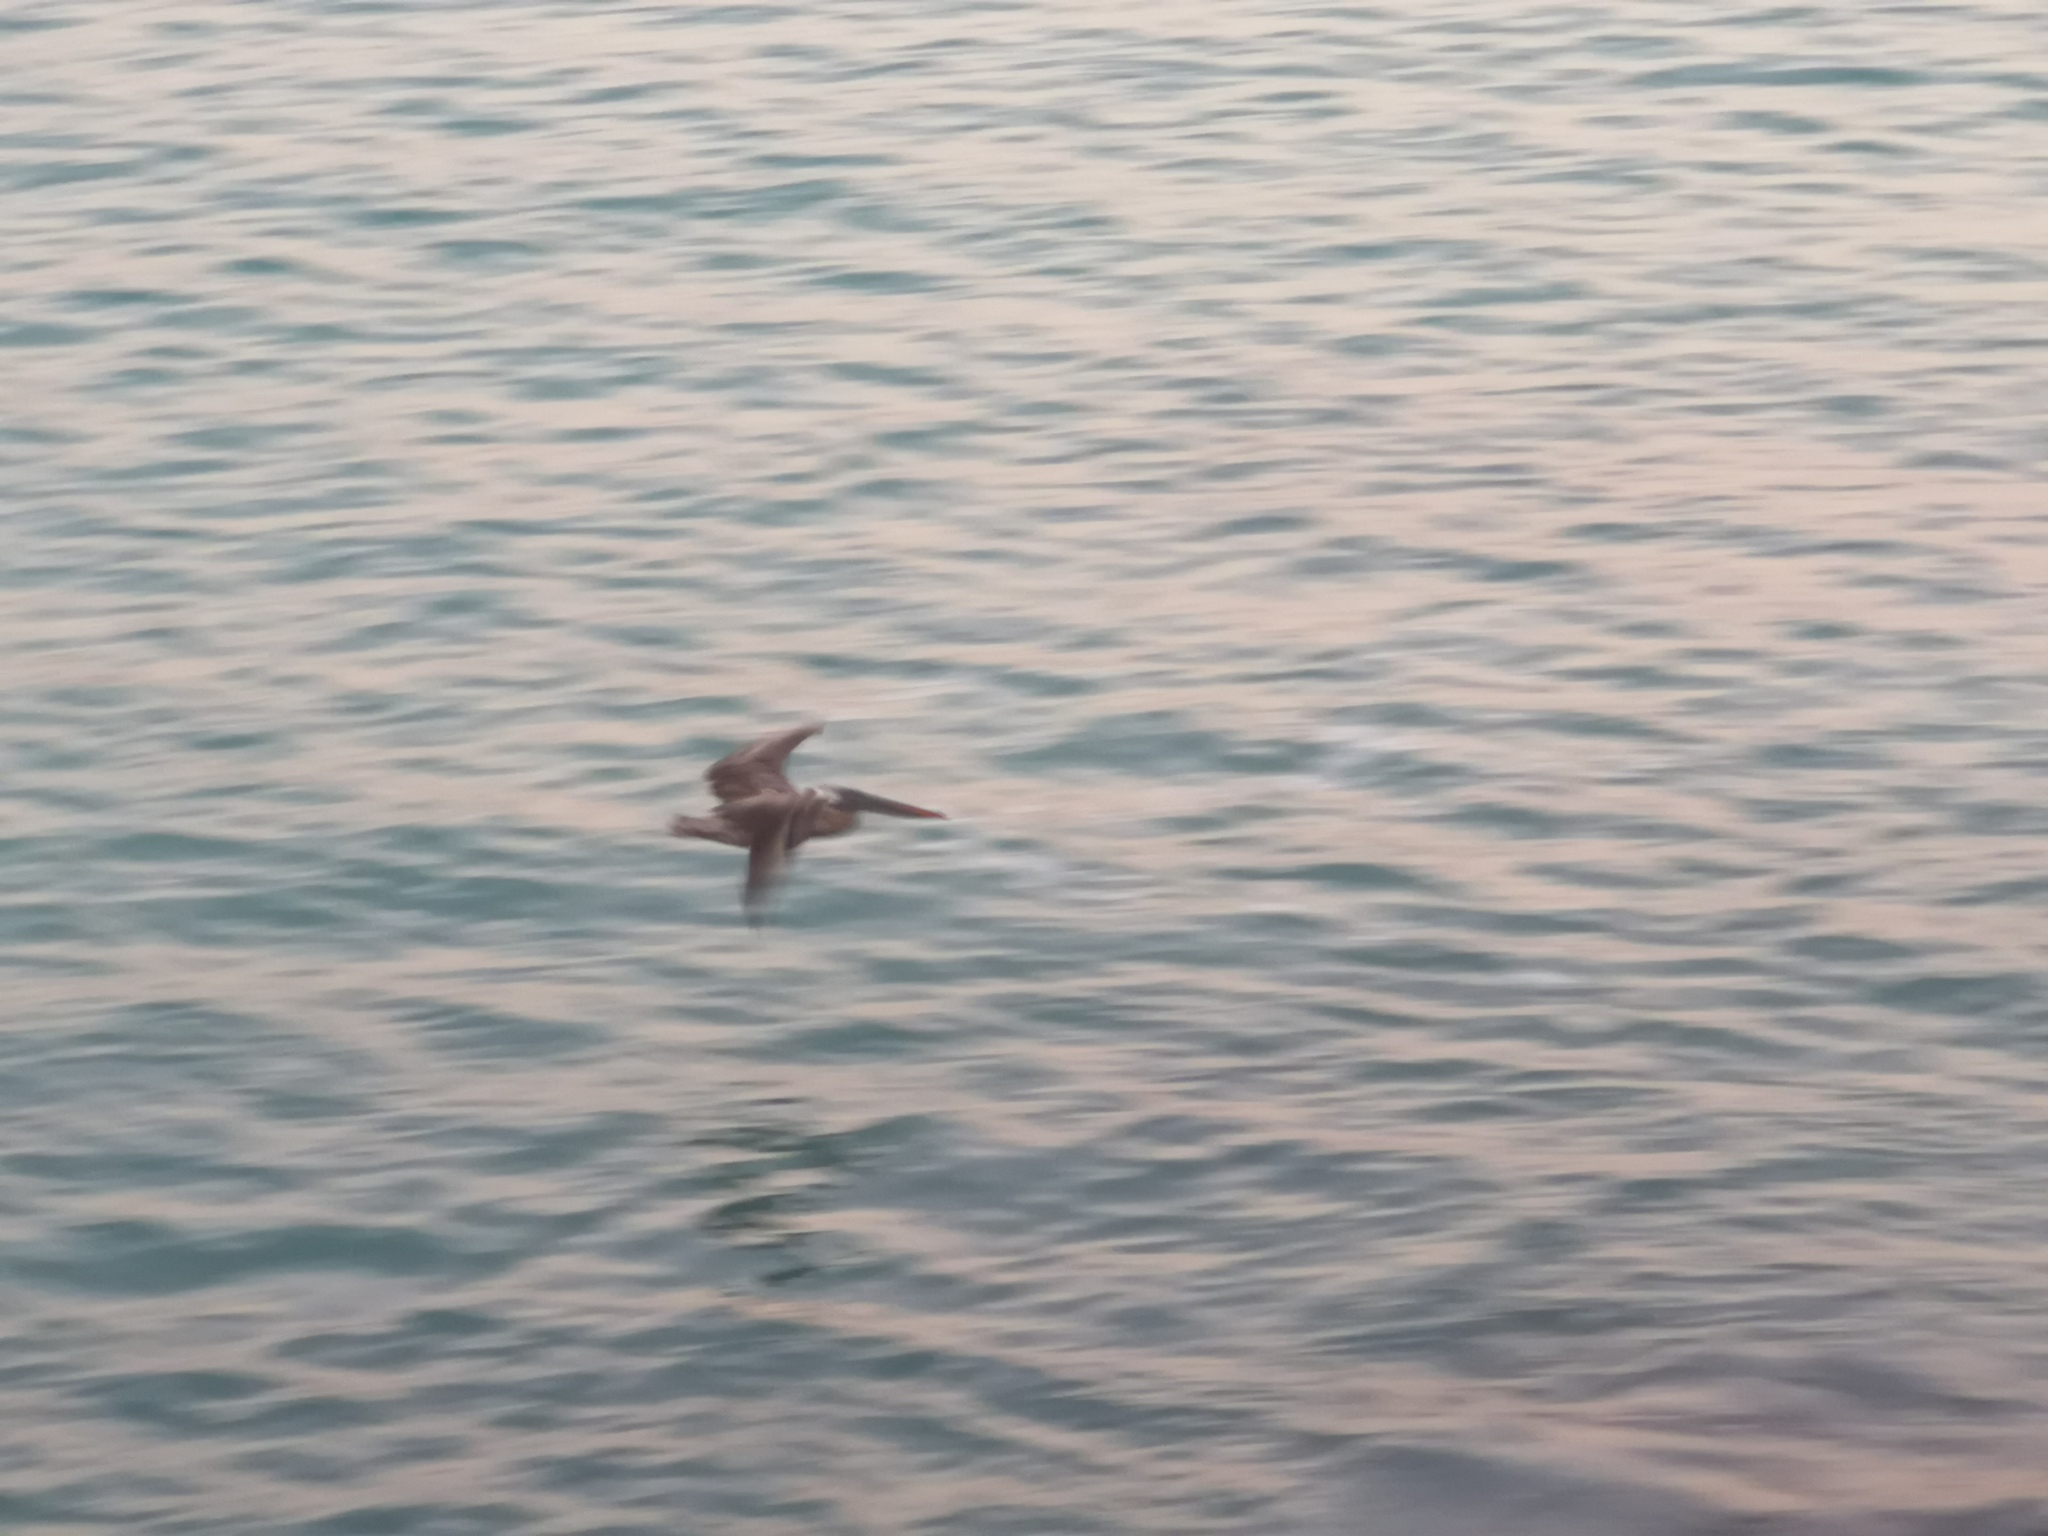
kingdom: Animalia
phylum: Chordata
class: Aves
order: Pelecaniformes
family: Pelecanidae
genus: Pelecanus
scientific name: Pelecanus occidentalis
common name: Brown pelican
